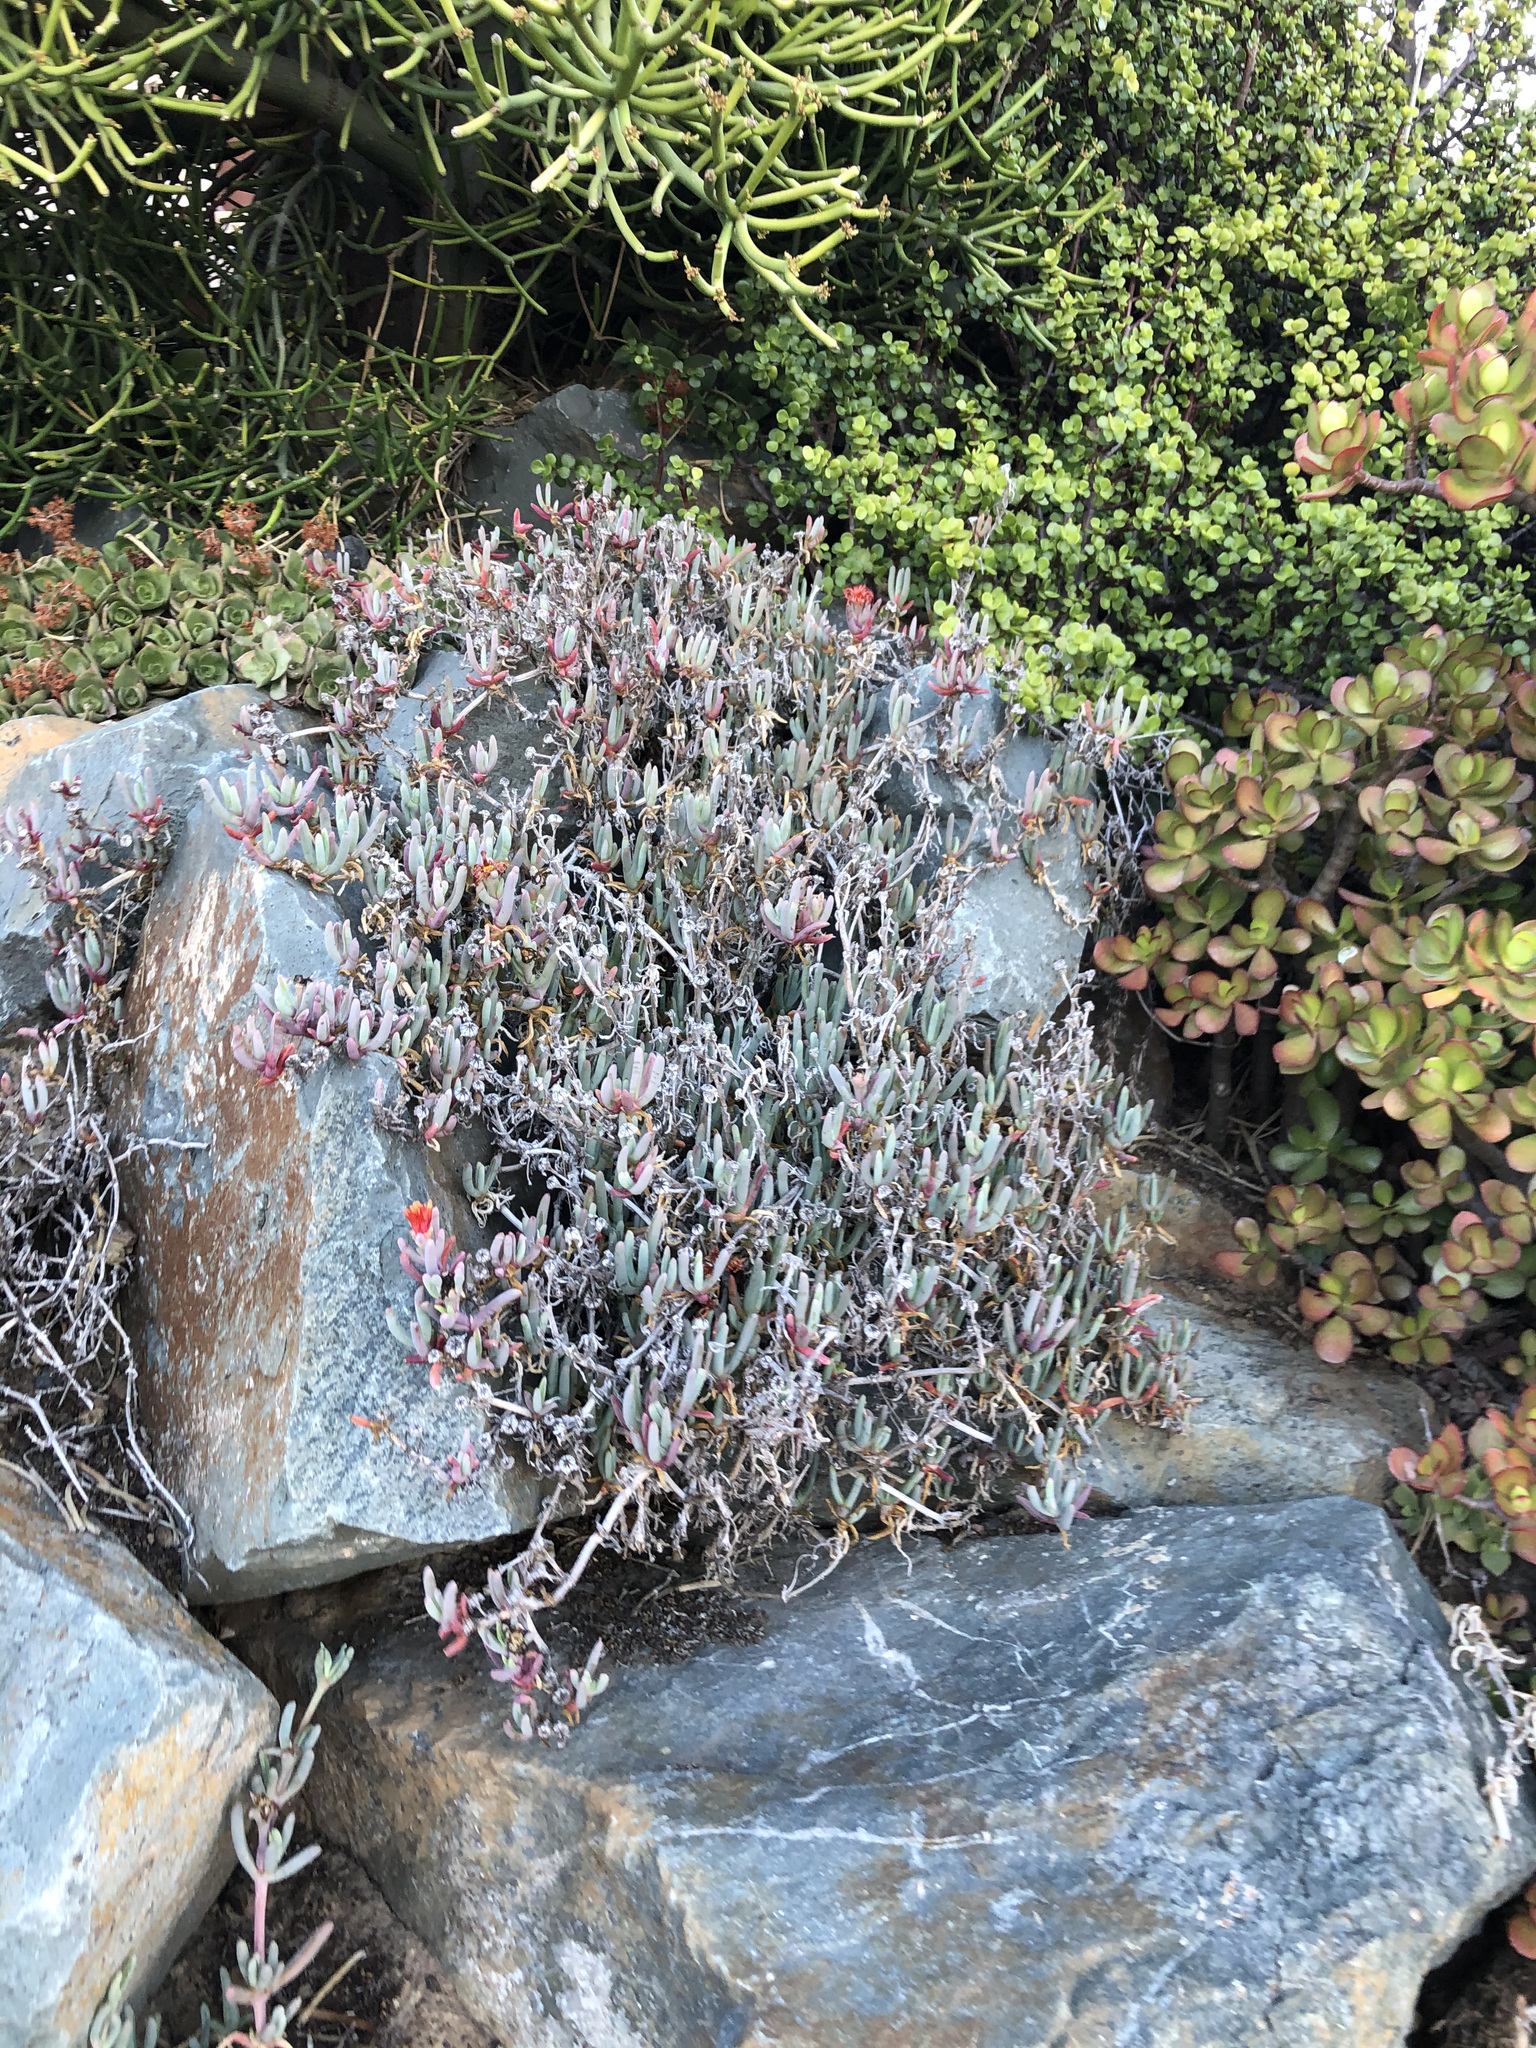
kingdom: Plantae
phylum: Tracheophyta
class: Magnoliopsida
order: Caryophyllales
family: Aizoaceae
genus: Malephora
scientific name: Malephora crocea
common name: Coppery mesemb
